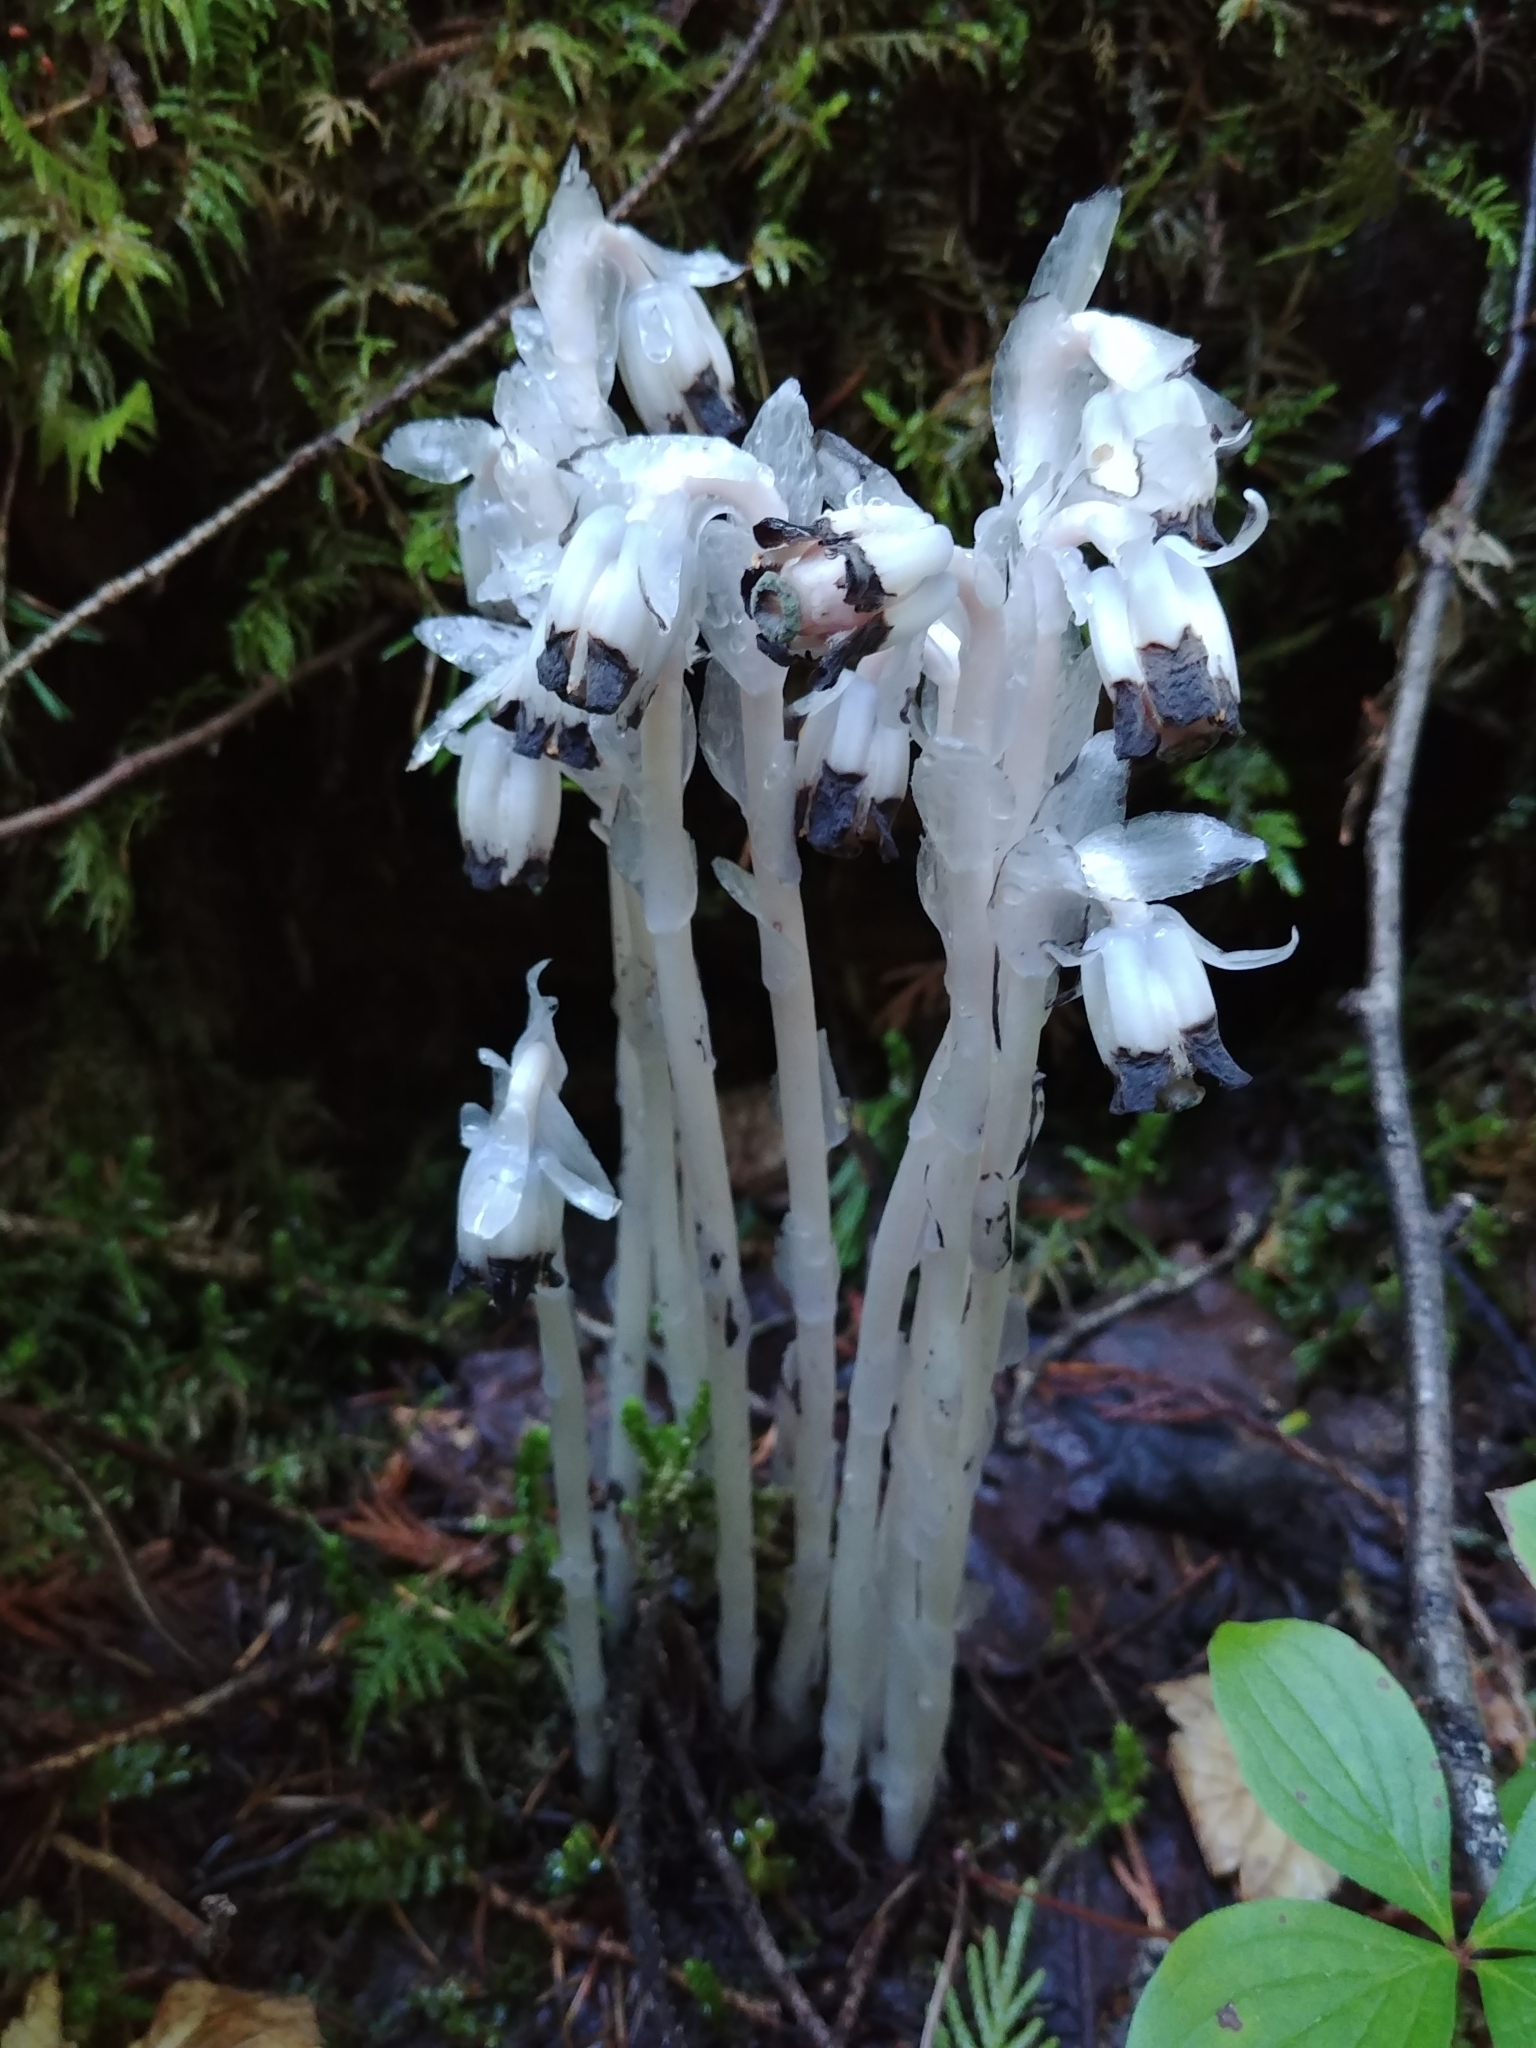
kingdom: Plantae
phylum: Tracheophyta
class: Magnoliopsida
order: Ericales
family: Ericaceae
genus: Monotropa
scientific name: Monotropa uniflora
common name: Convulsion root
